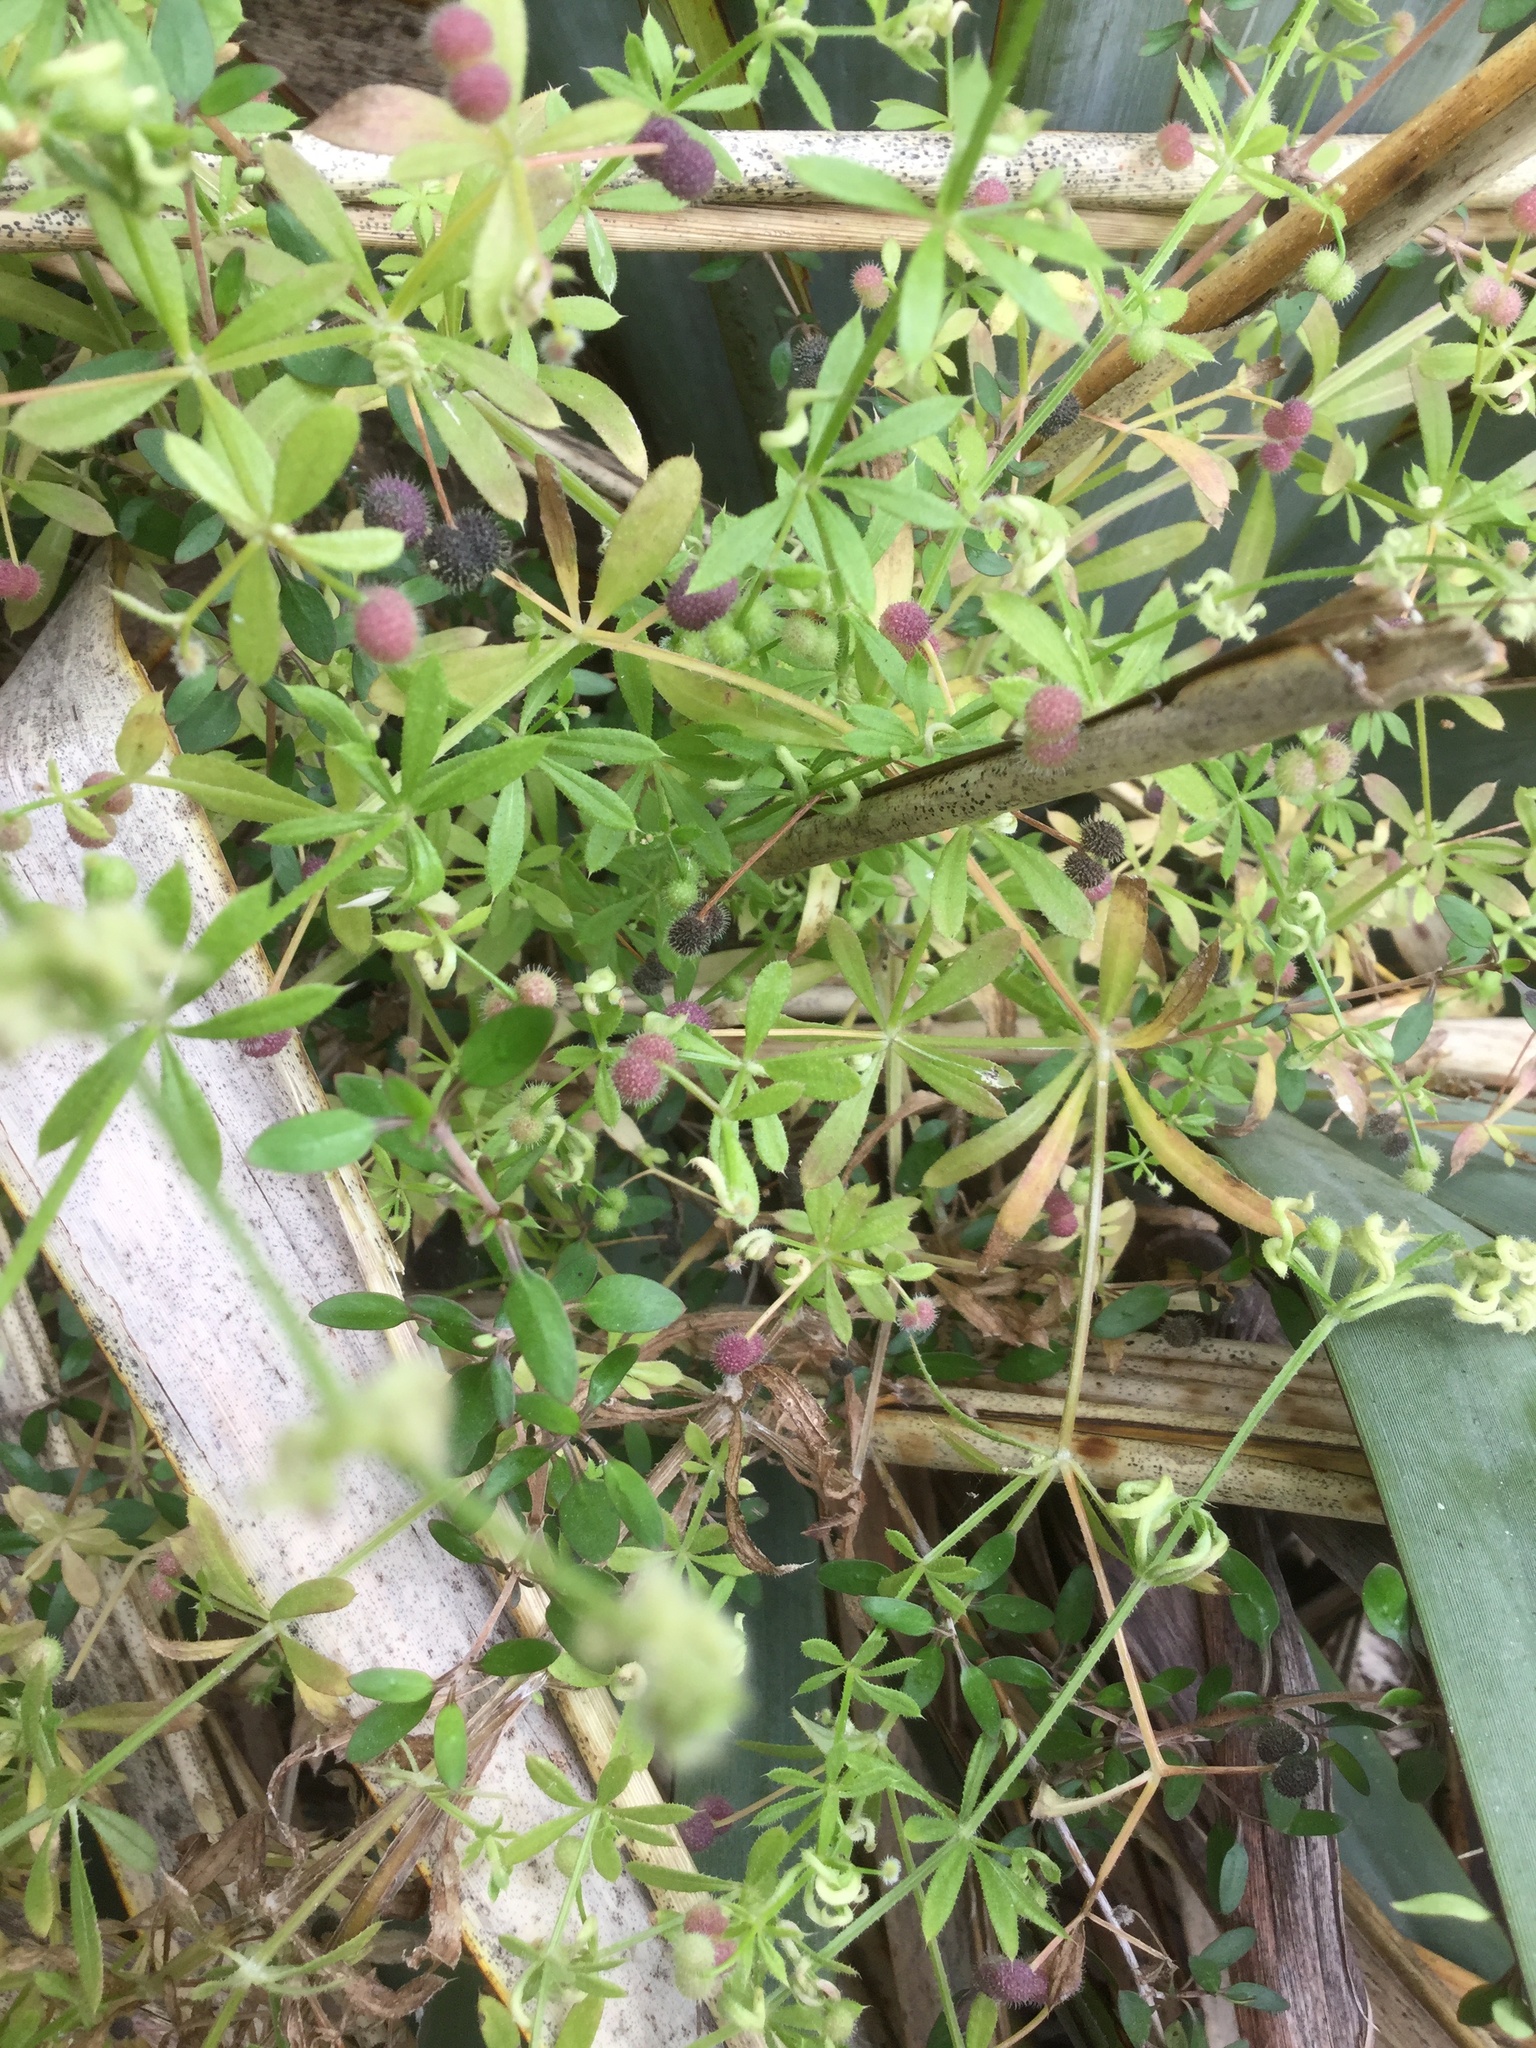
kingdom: Plantae
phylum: Tracheophyta
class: Magnoliopsida
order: Gentianales
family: Rubiaceae
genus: Galium
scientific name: Galium aparine
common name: Cleavers
